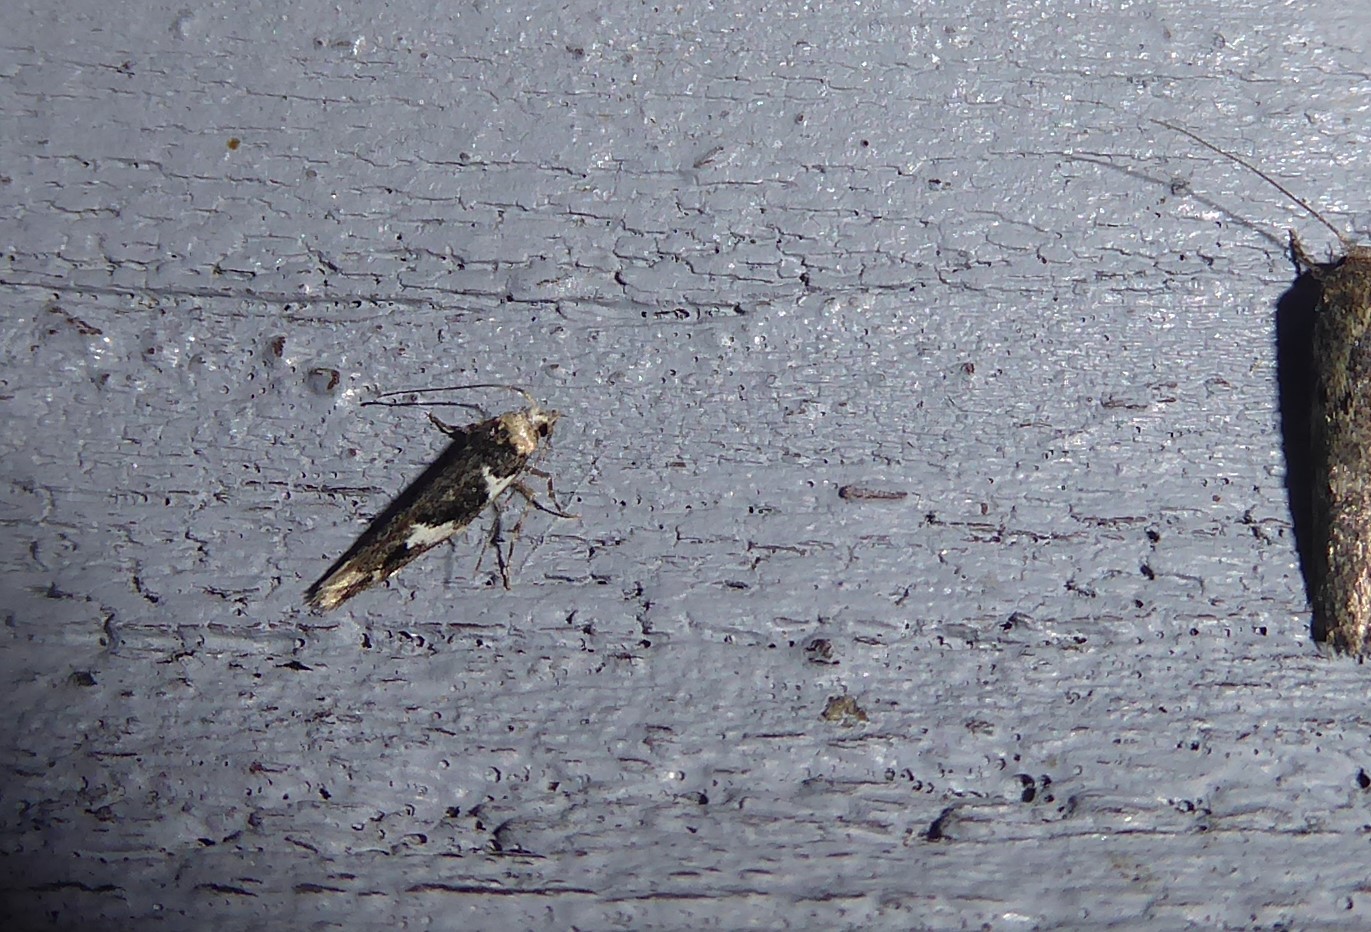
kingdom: Animalia
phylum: Arthropoda
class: Insecta
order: Lepidoptera
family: Cosmopterigidae
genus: Pyroderces
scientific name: Pyroderces deamatella
